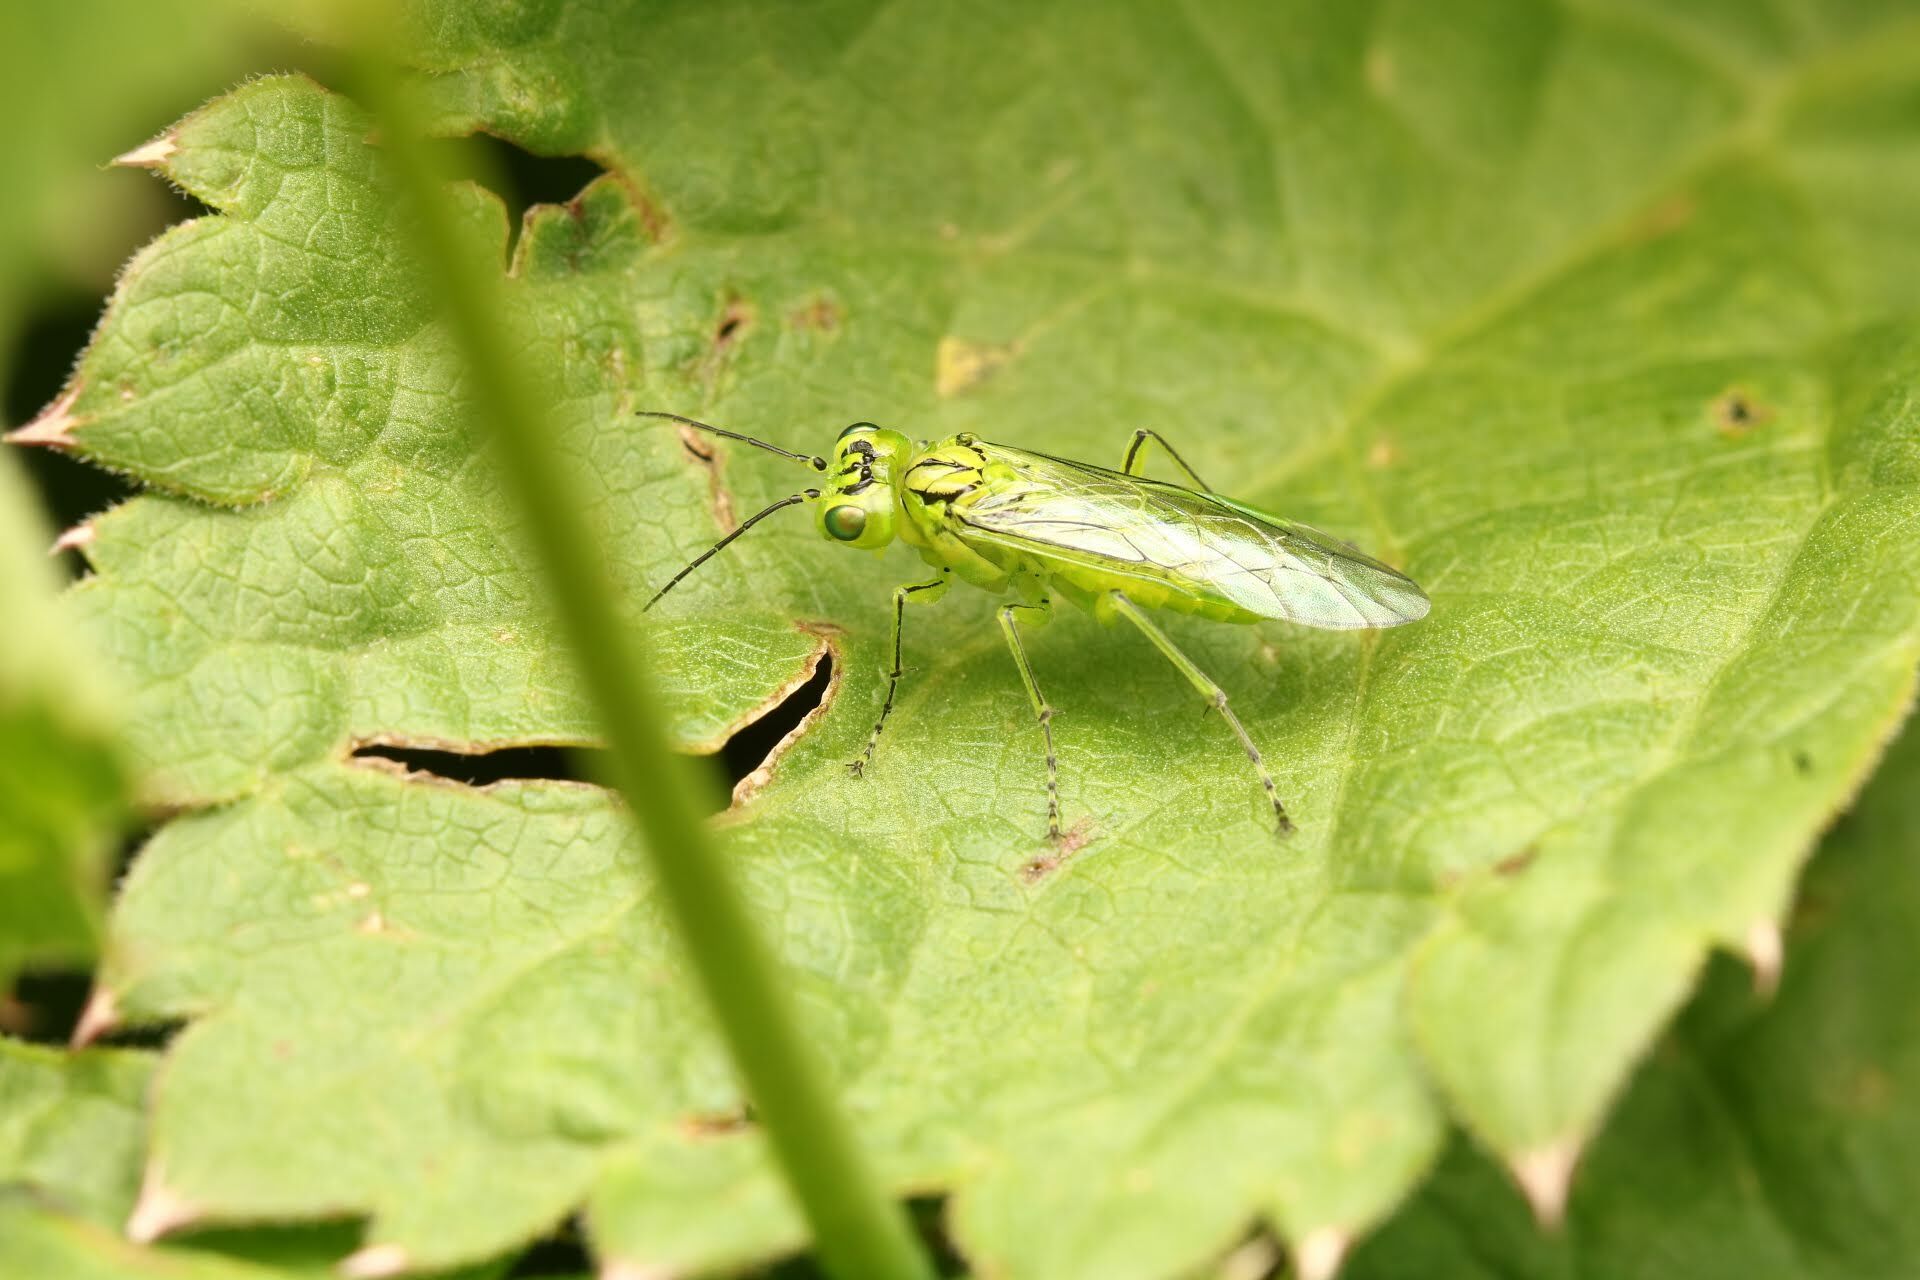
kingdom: Animalia
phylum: Arthropoda
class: Insecta
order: Hymenoptera
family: Tenthredinidae
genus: Rhogogaster
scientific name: Rhogogaster punctulata
